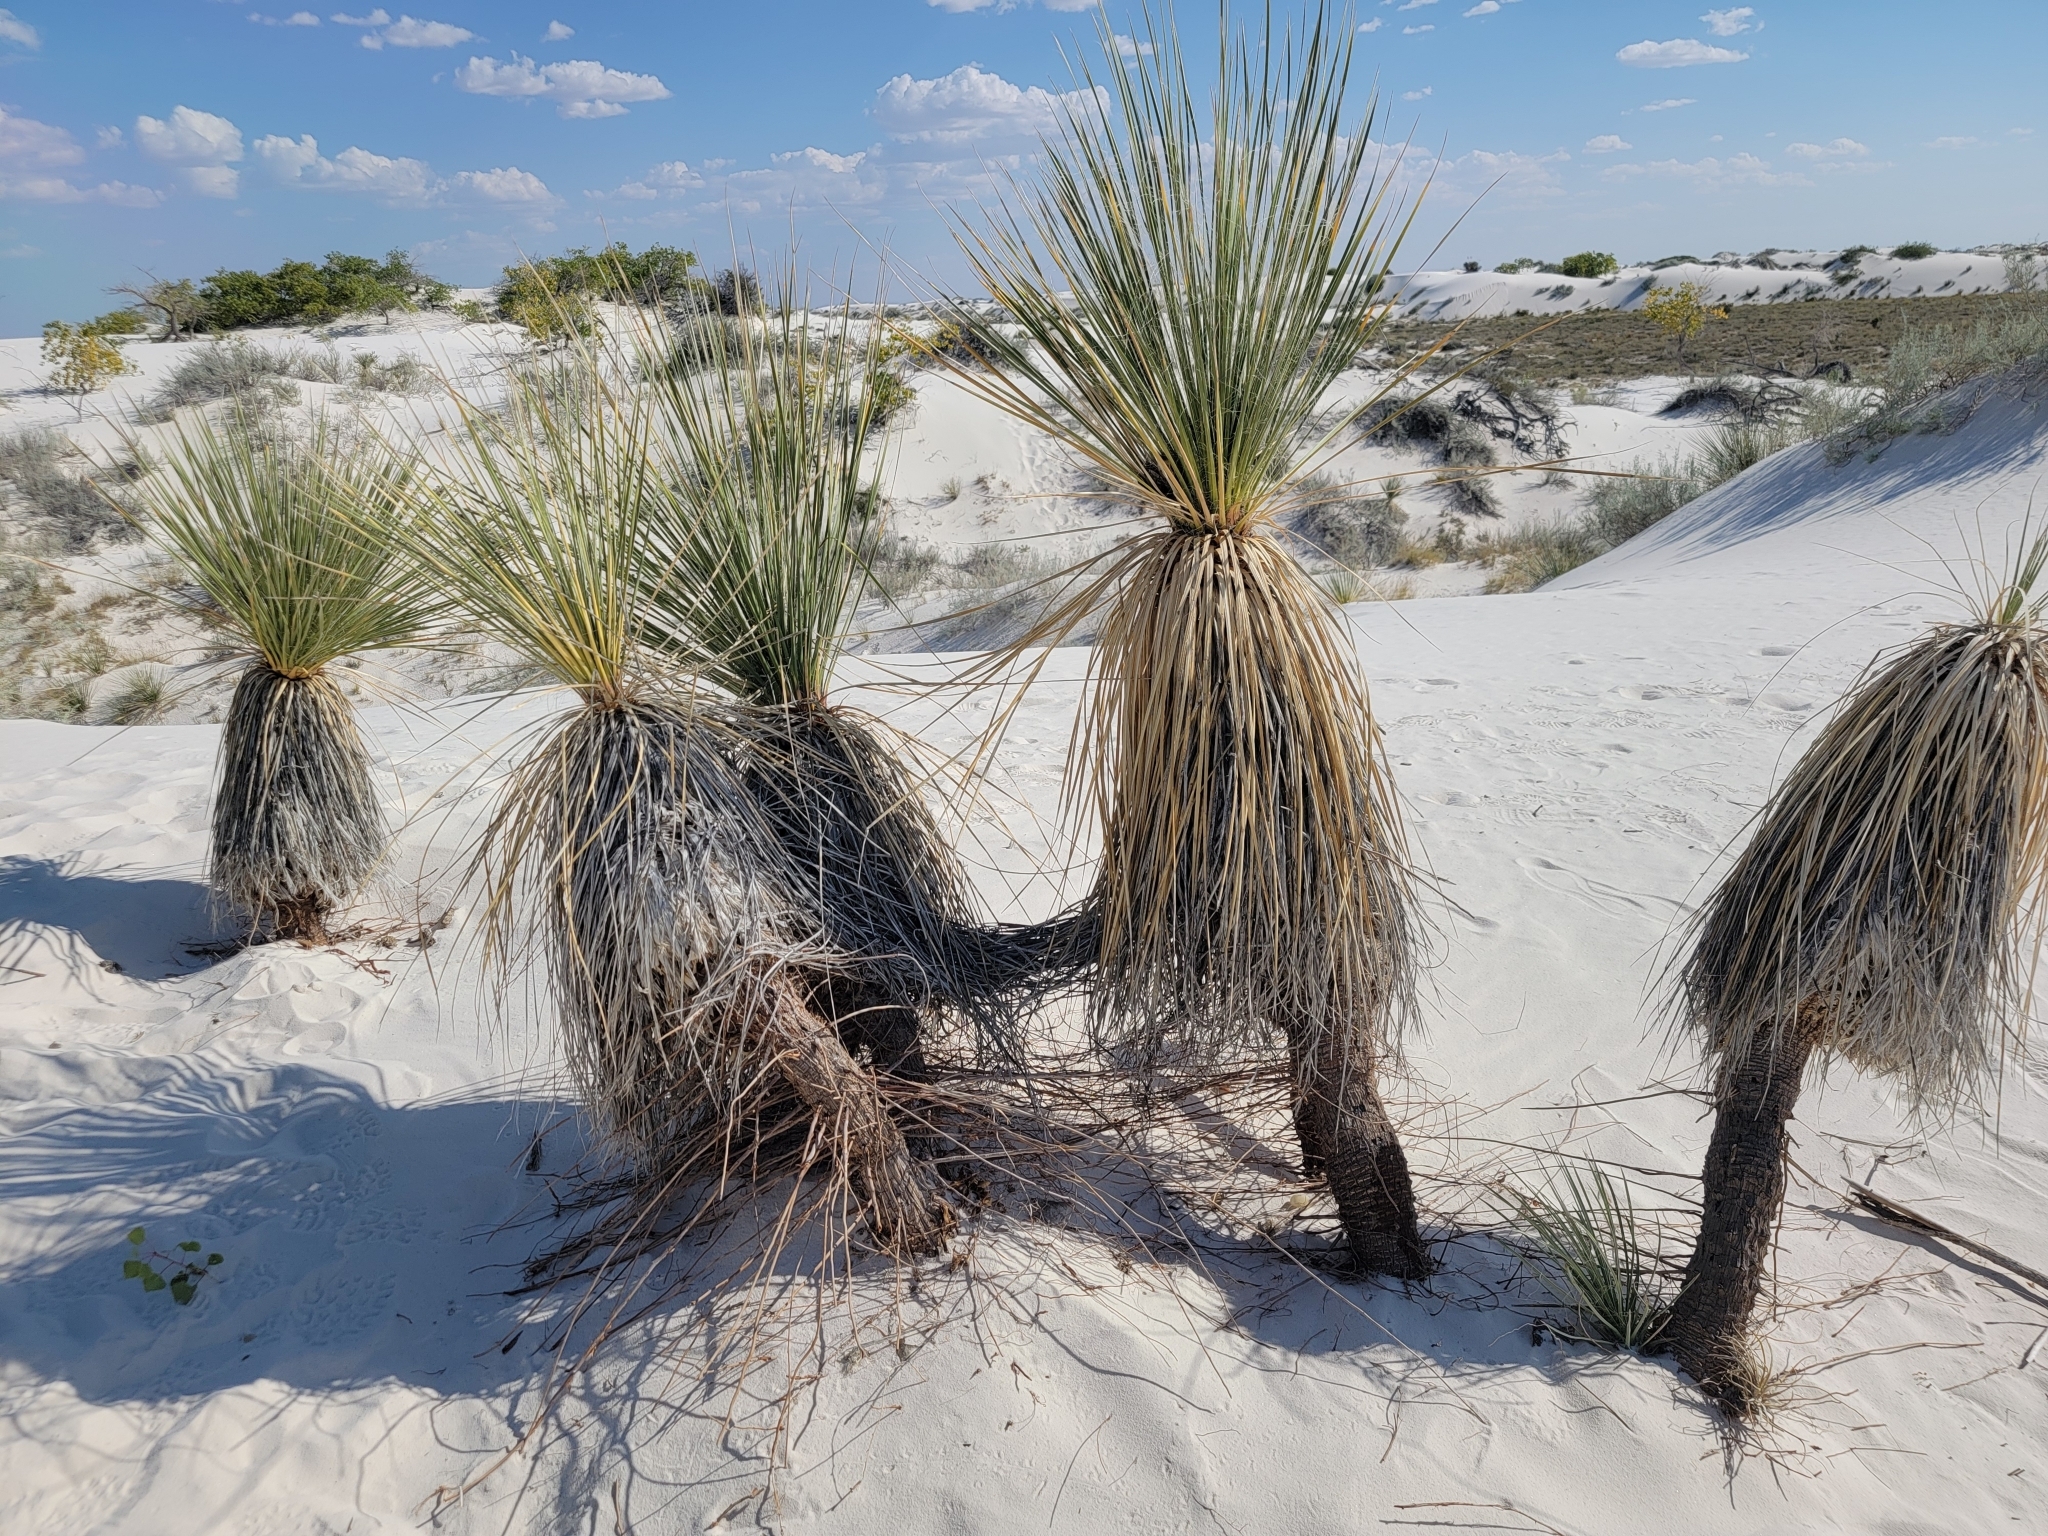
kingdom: Plantae
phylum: Tracheophyta
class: Liliopsida
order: Asparagales
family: Asparagaceae
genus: Yucca
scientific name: Yucca elata
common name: Palmella
